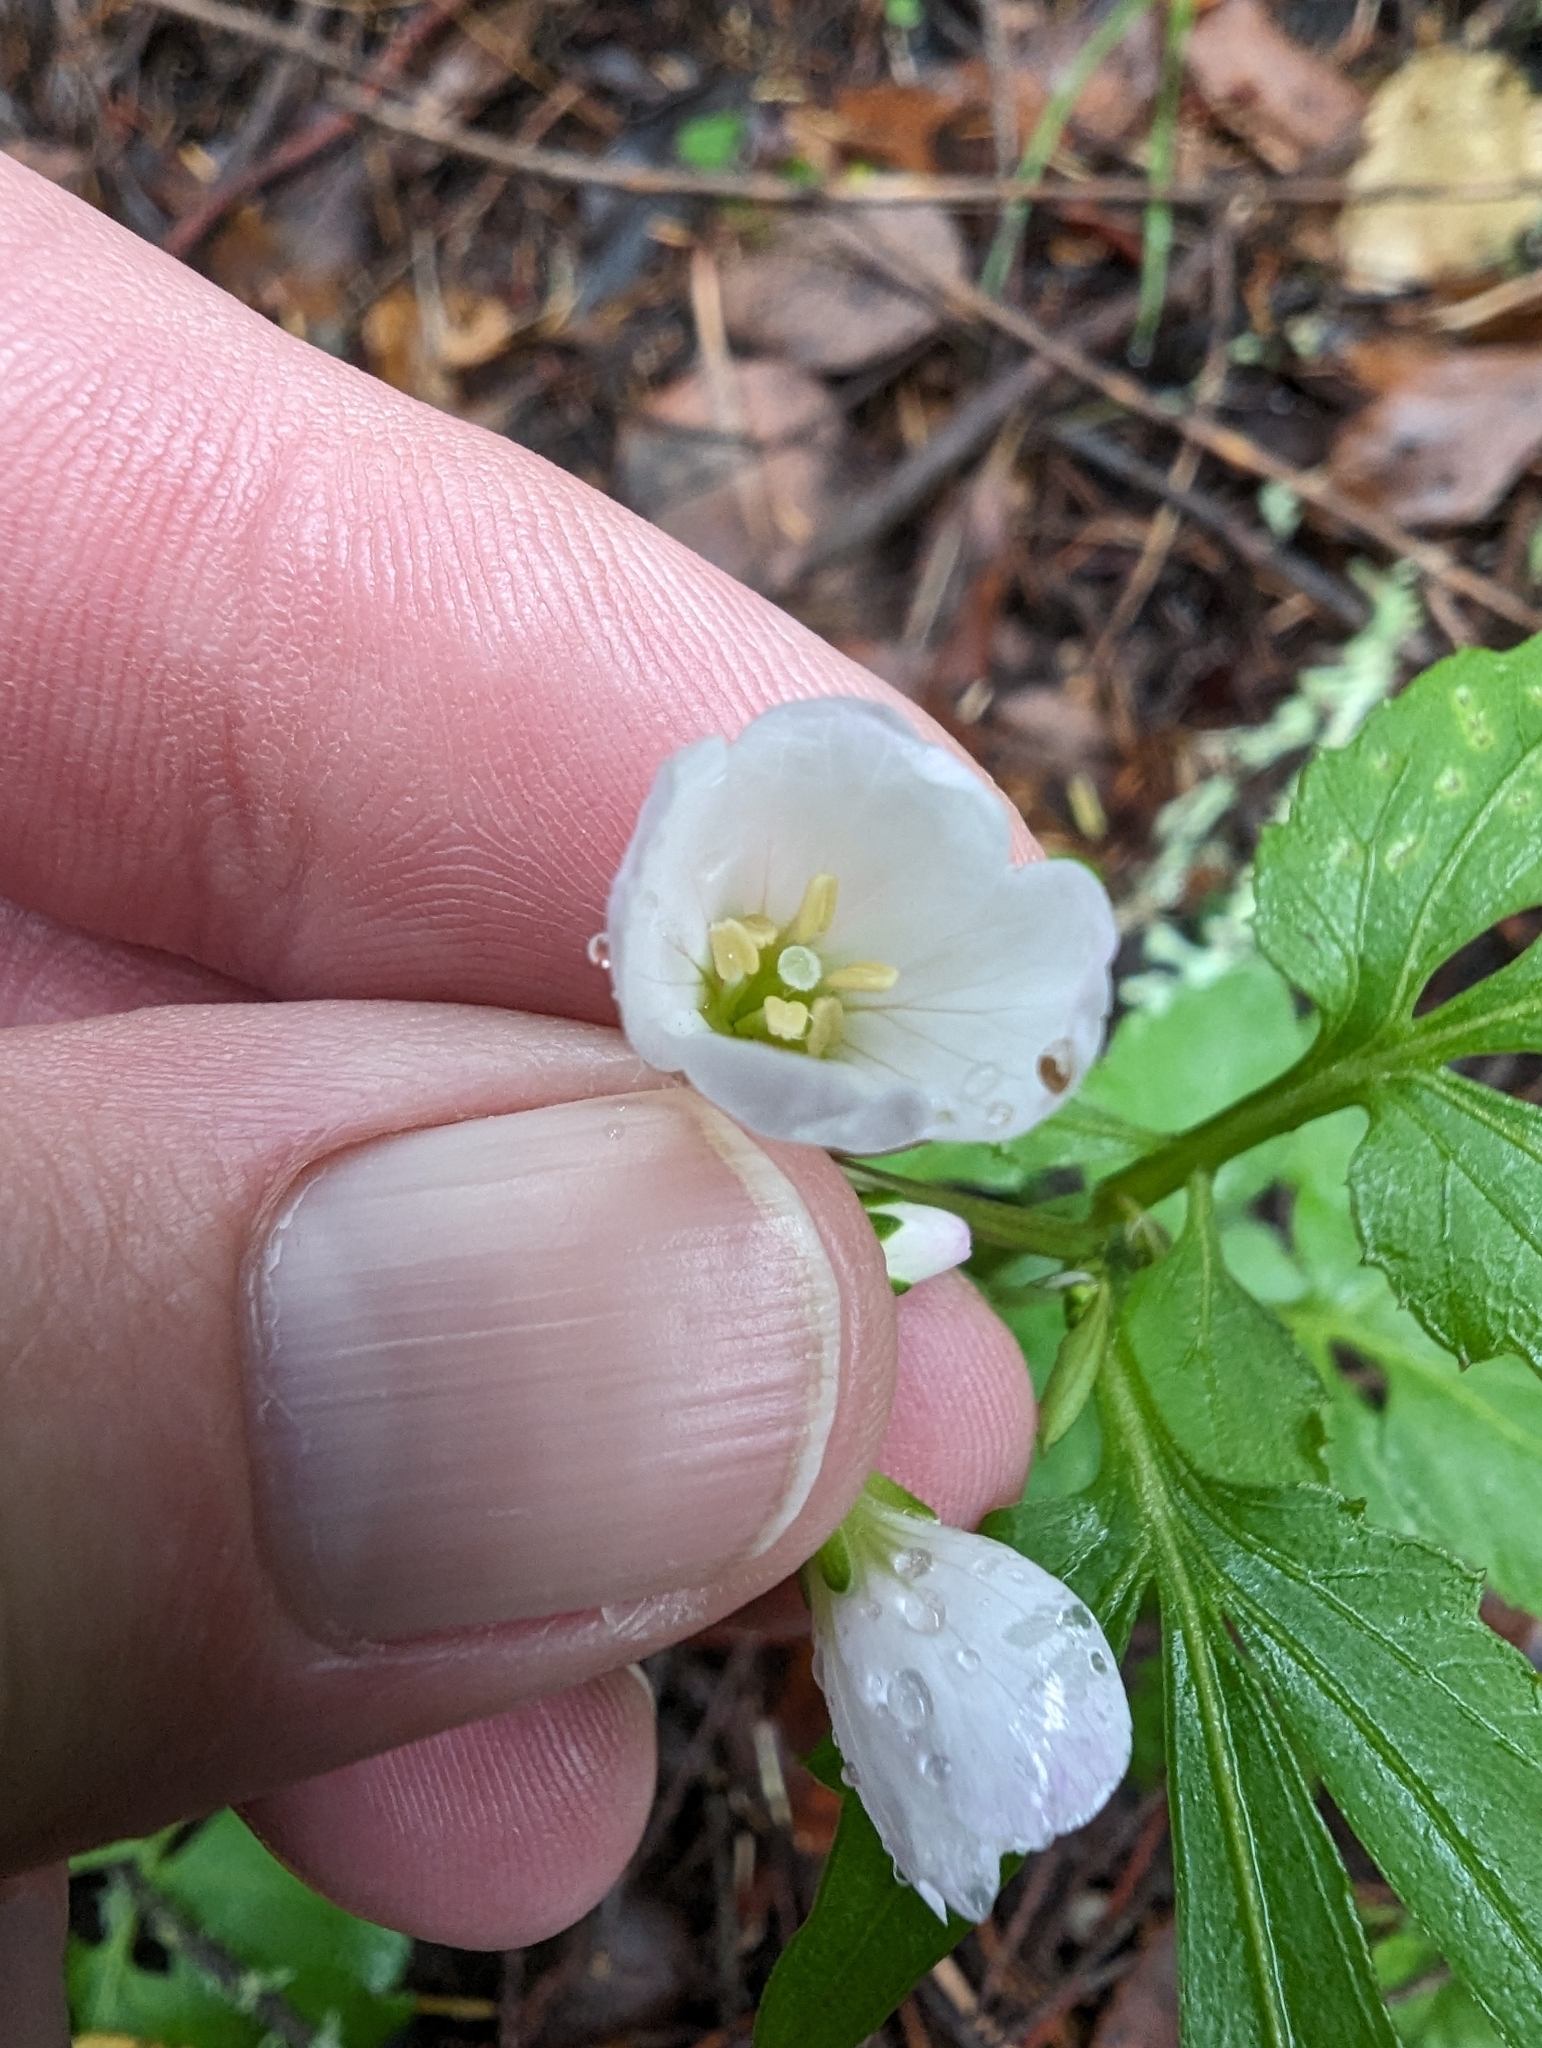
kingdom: Plantae
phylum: Tracheophyta
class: Magnoliopsida
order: Brassicales
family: Brassicaceae
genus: Cardamine
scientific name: Cardamine californica
